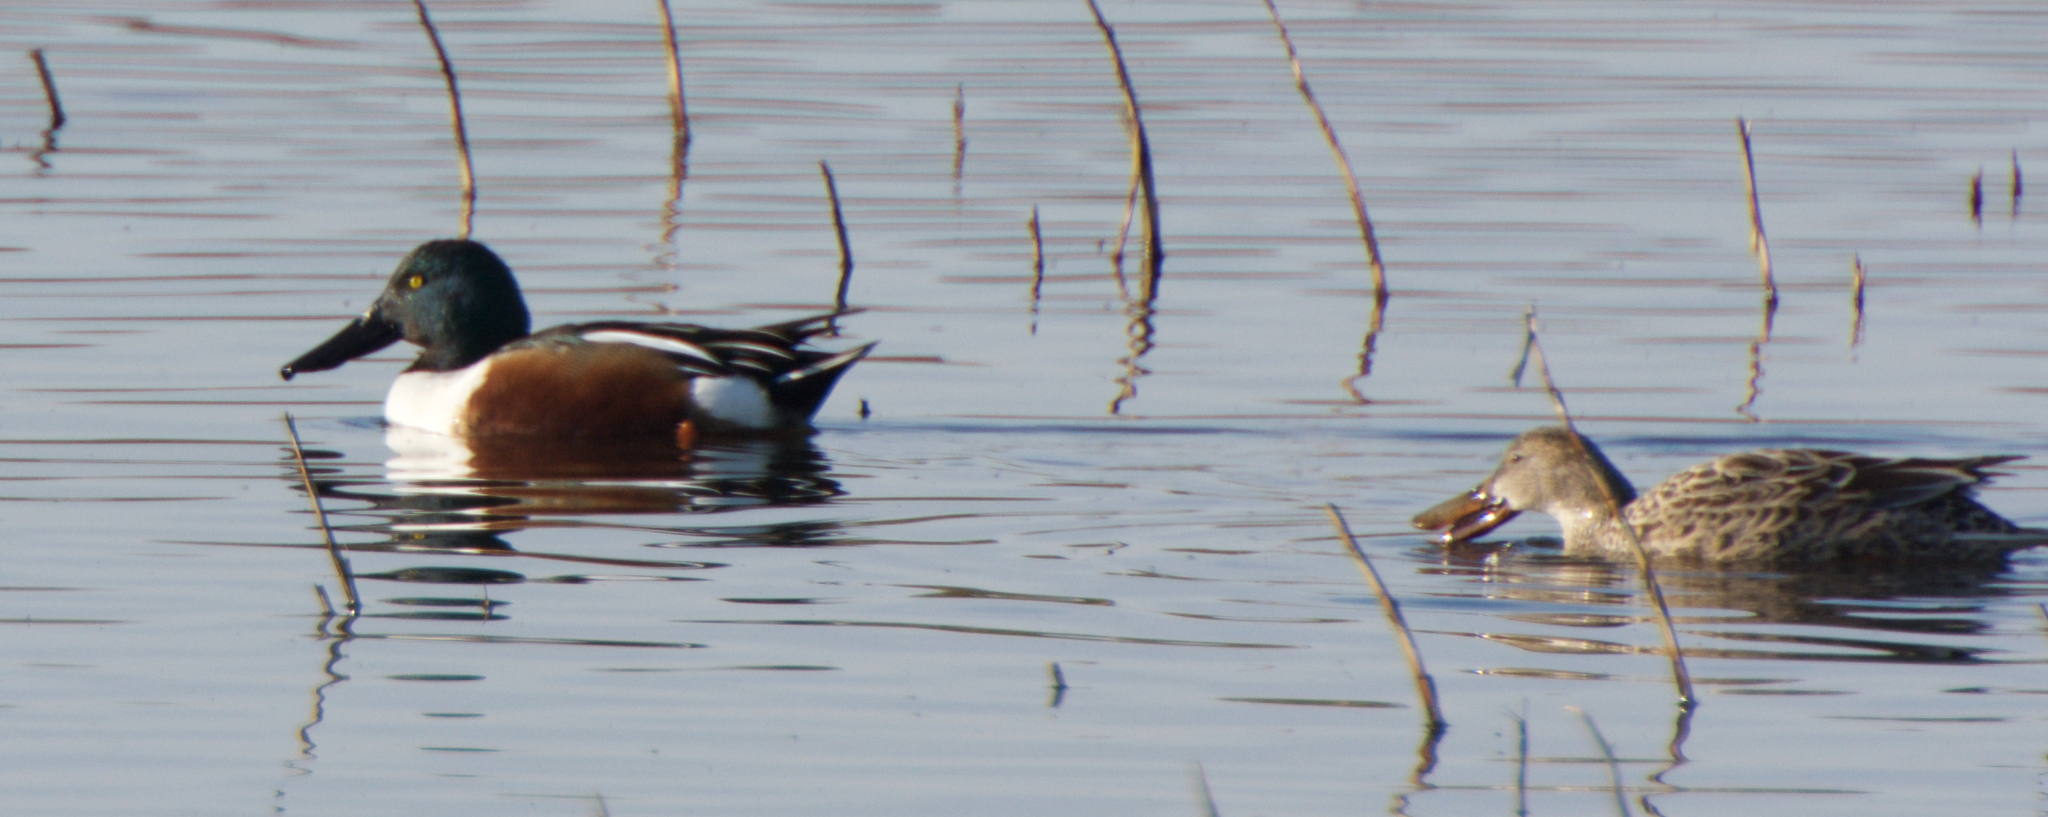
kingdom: Animalia
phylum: Chordata
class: Aves
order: Anseriformes
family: Anatidae
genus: Spatula
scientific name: Spatula clypeata
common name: Northern shoveler
